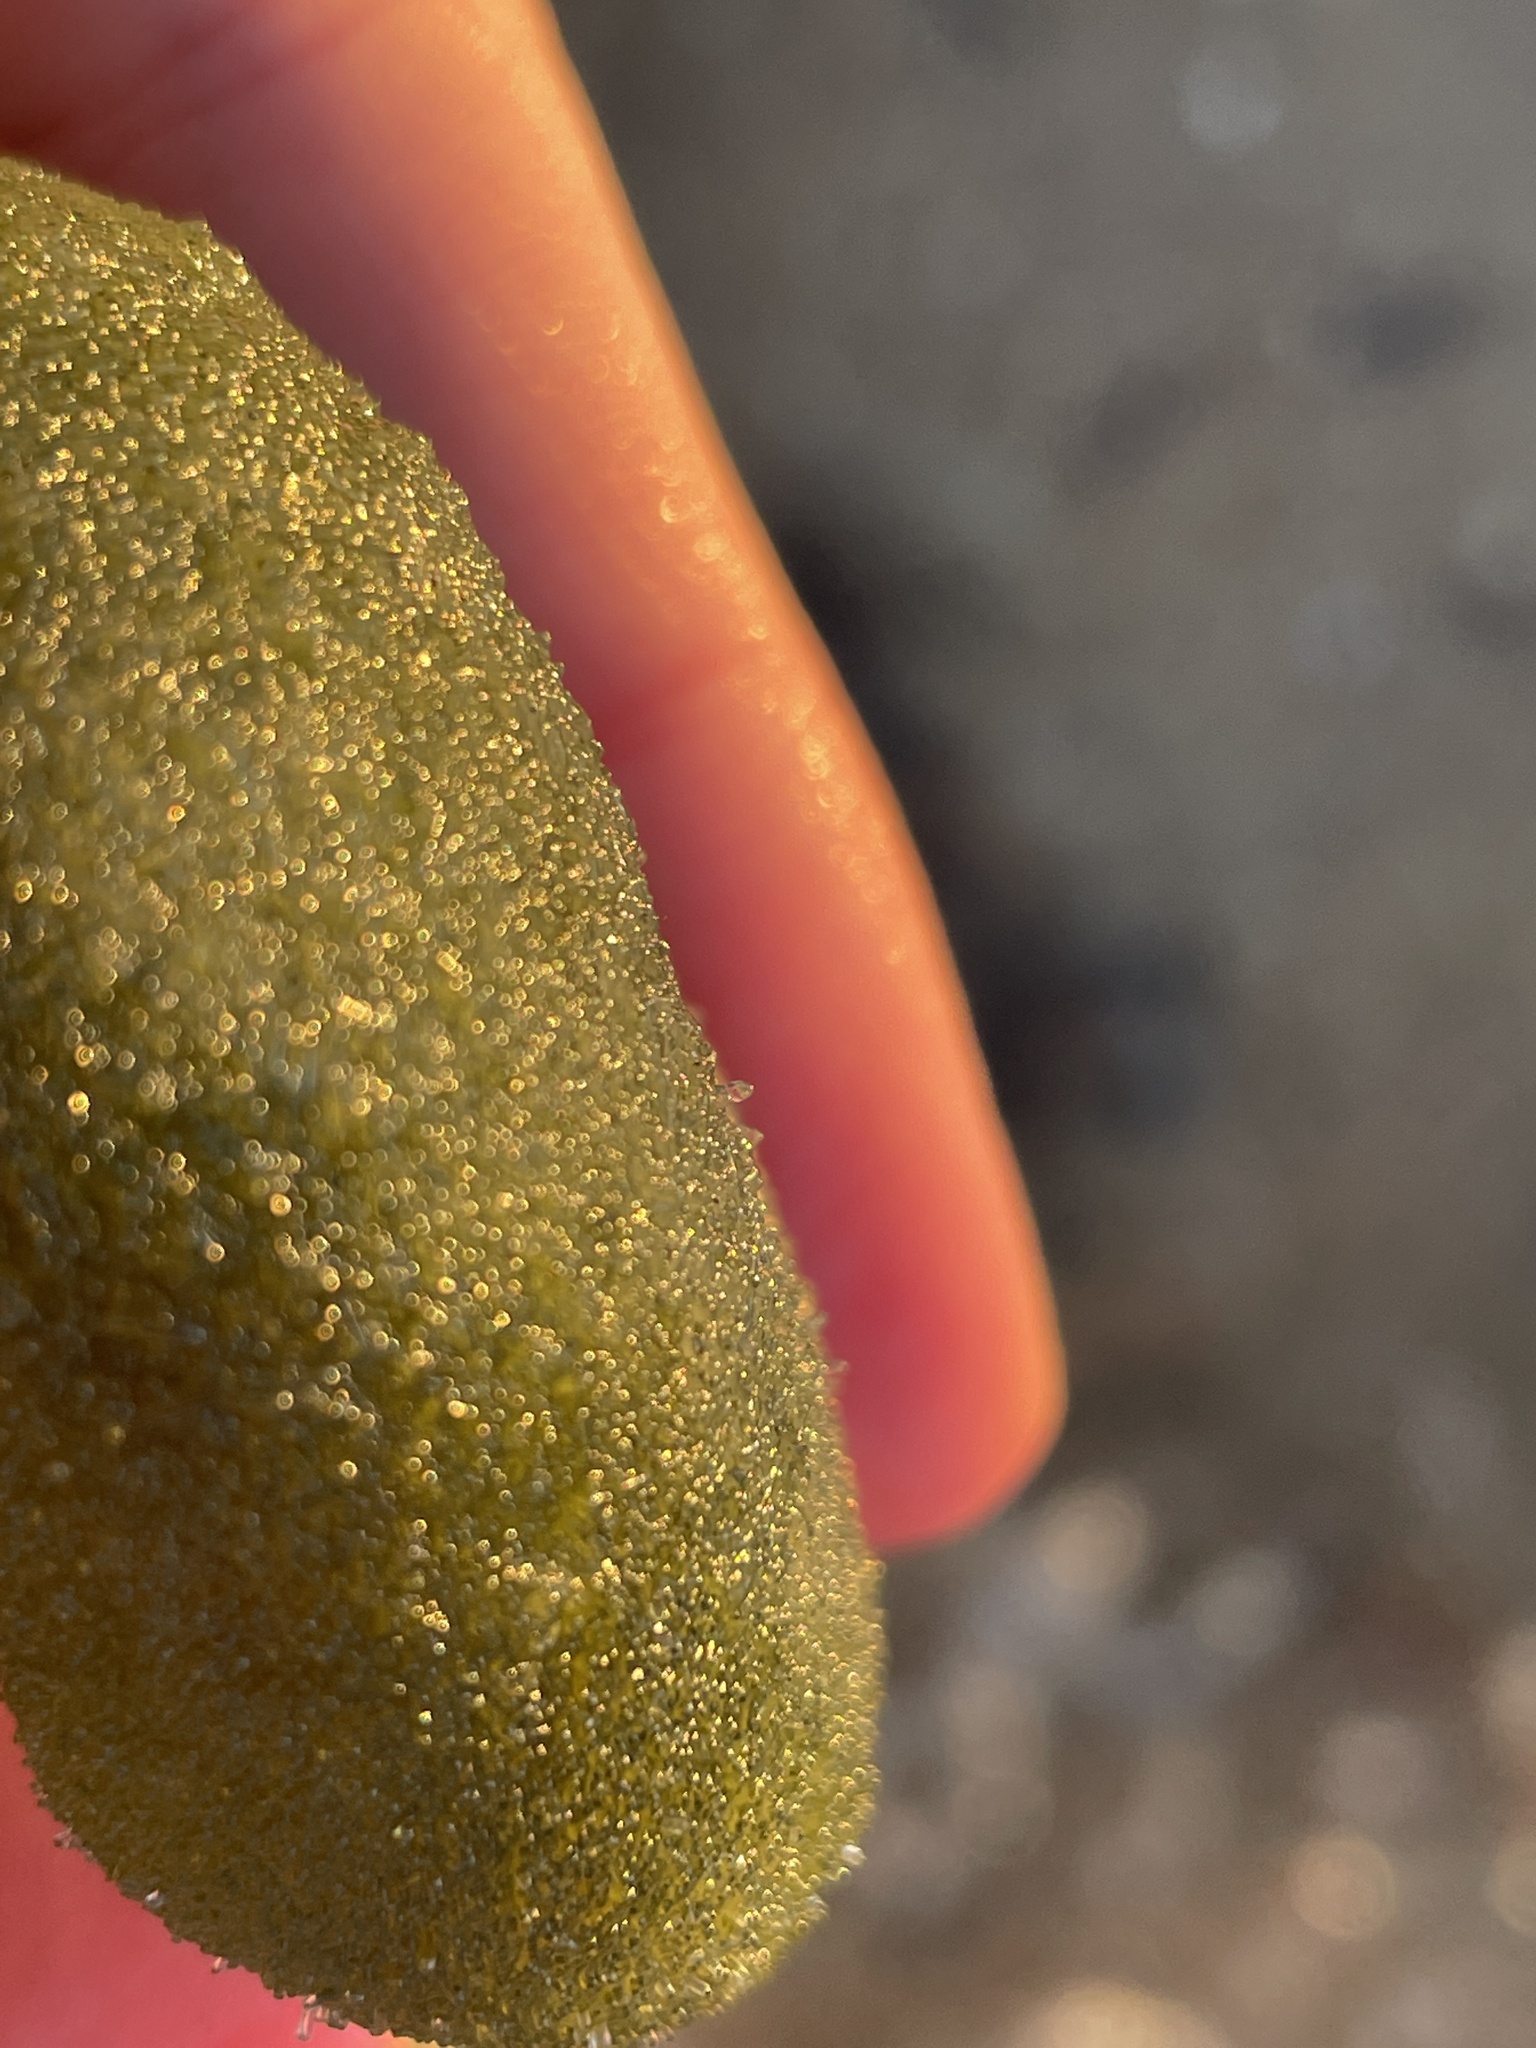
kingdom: Plantae
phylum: Chlorophyta
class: Ulvophyceae
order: Bryopsidales
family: Codiaceae
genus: Codium
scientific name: Codium bursa
